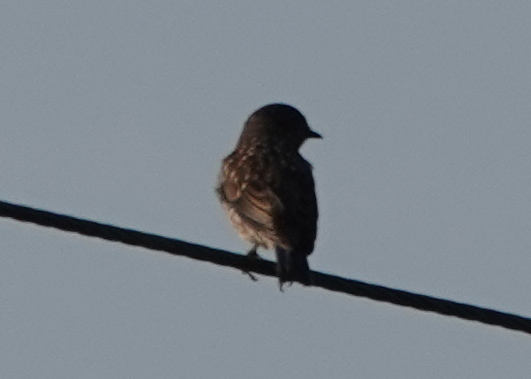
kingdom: Animalia
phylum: Chordata
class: Aves
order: Passeriformes
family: Turdidae
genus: Sialia
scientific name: Sialia sialis
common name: Eastern bluebird
